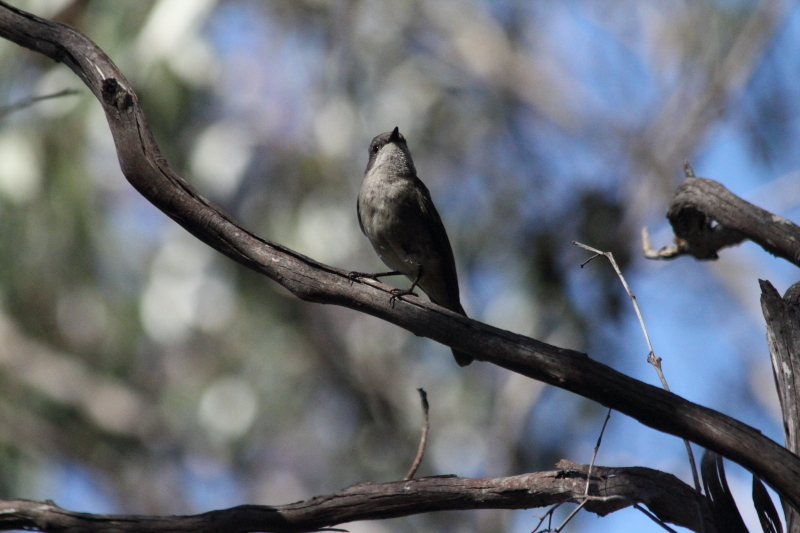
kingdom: Animalia
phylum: Chordata
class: Aves
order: Passeriformes
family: Pachycephalidae
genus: Pachycephala
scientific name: Pachycephala pectoralis
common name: Australian golden whistler
